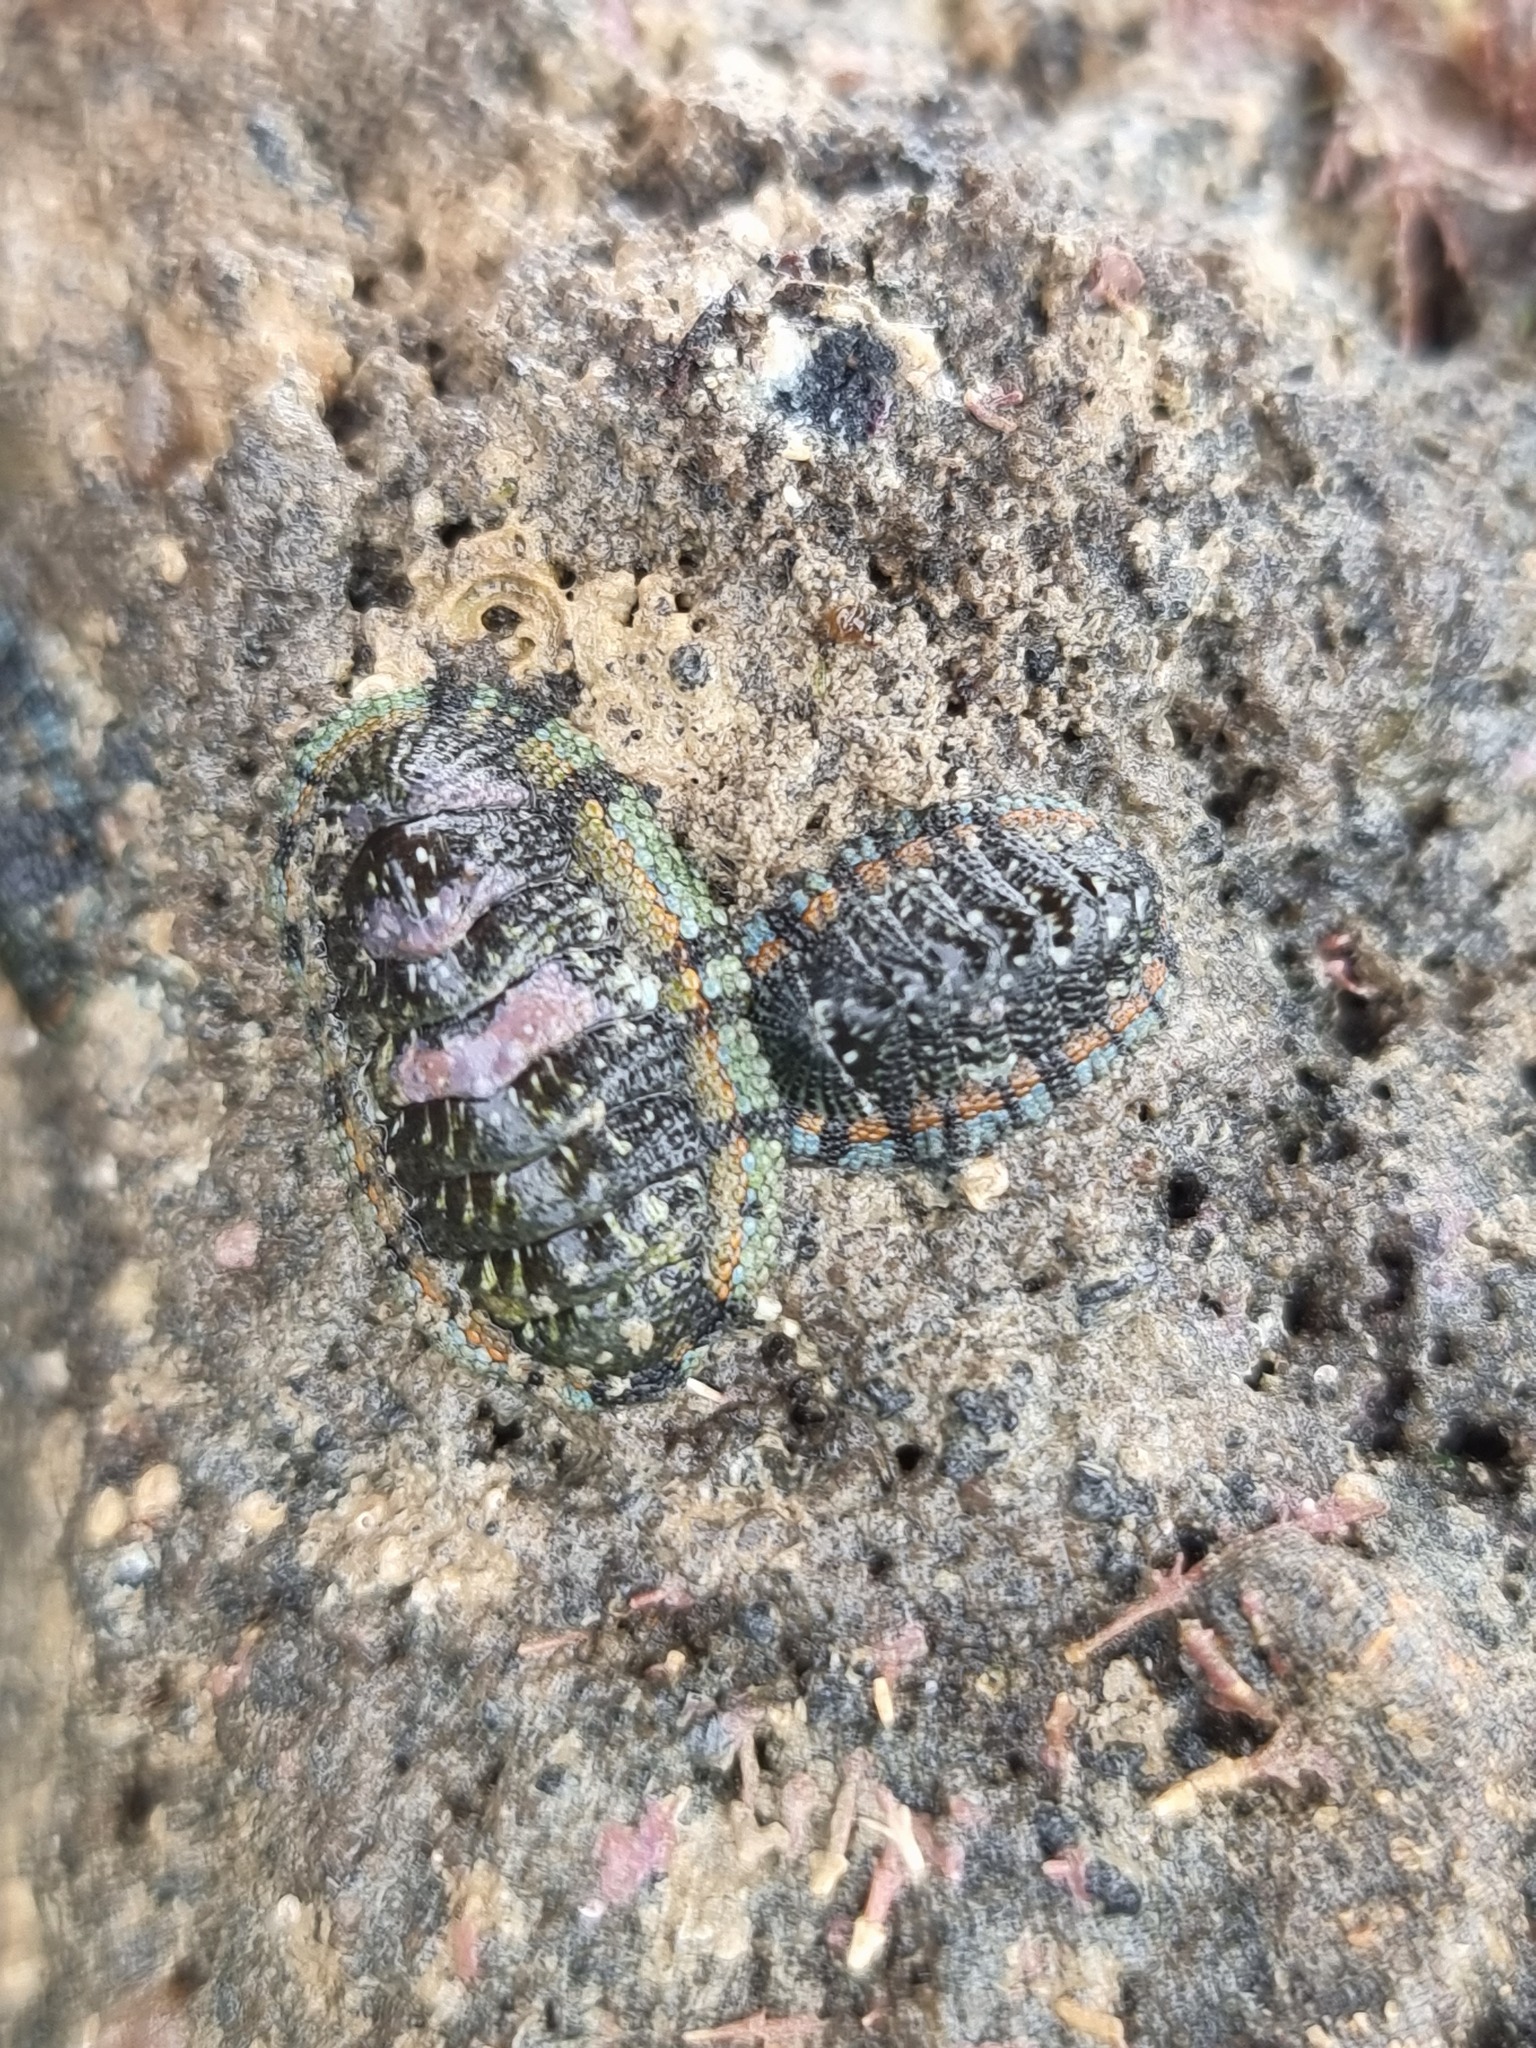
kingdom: Animalia
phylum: Mollusca
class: Polyplacophora
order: Chitonida
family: Chitonidae
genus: Sypharochiton
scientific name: Sypharochiton sinclairi
